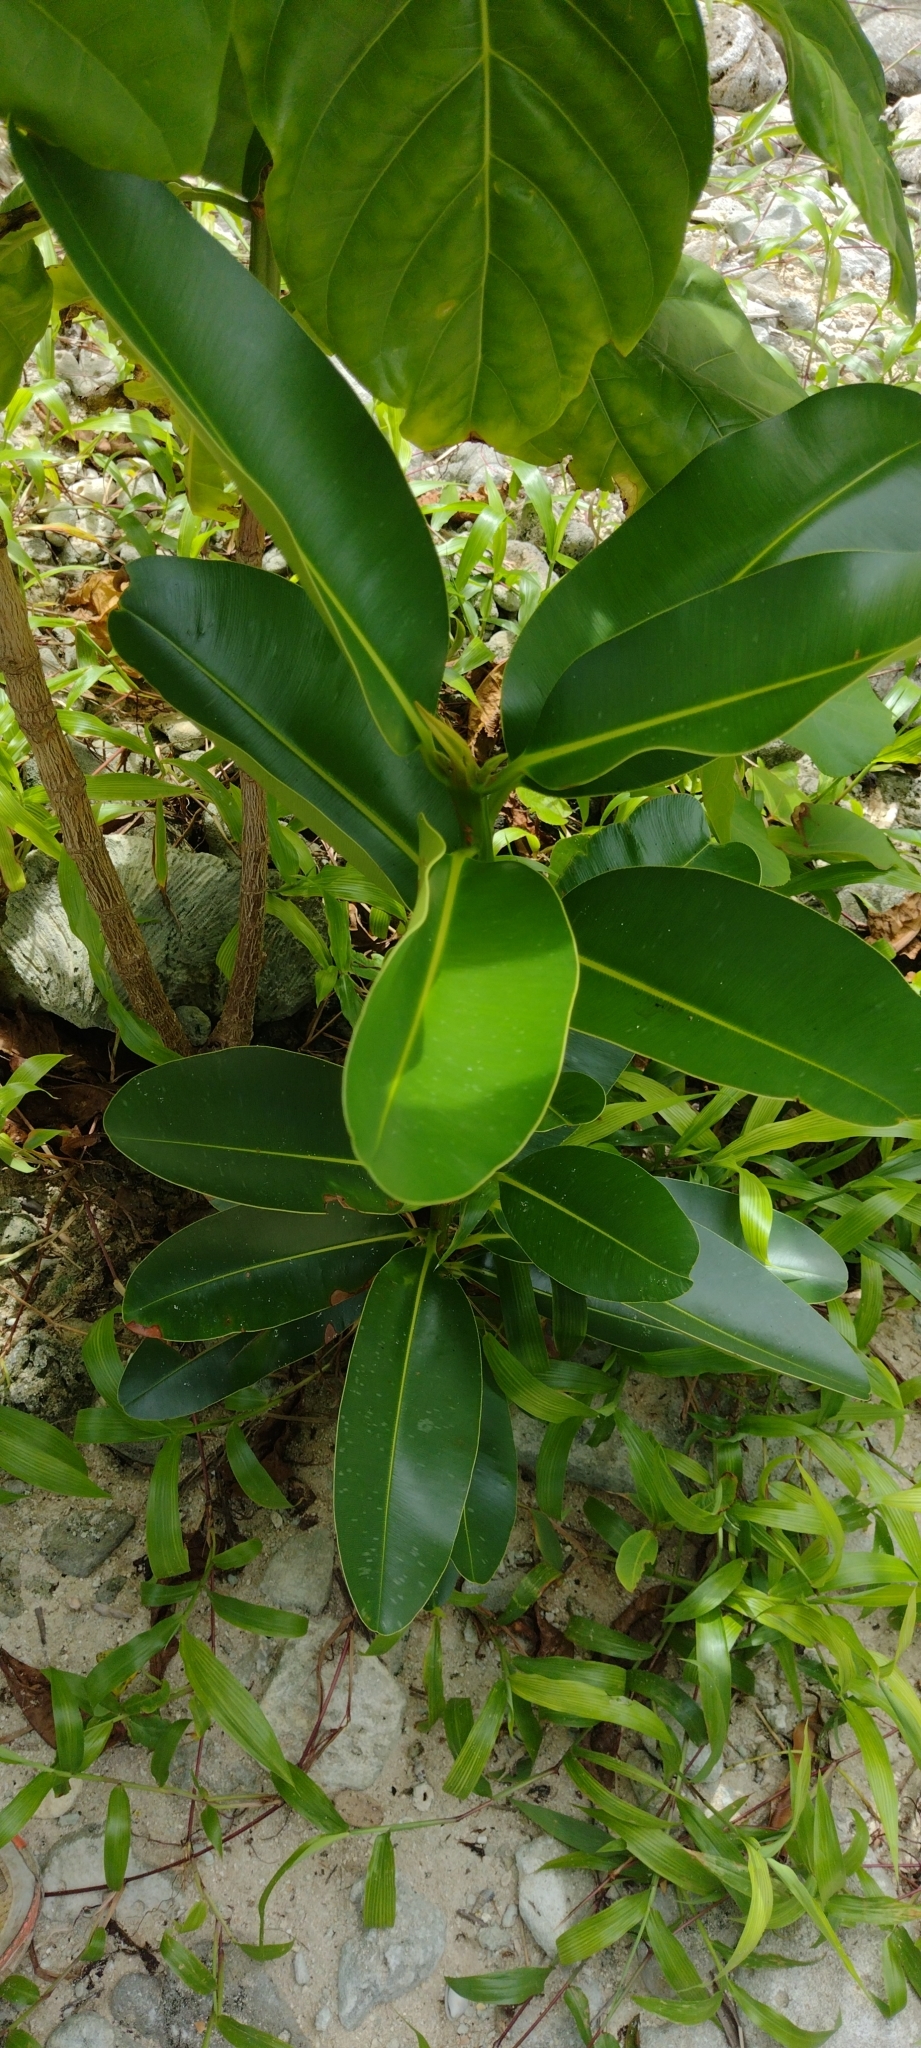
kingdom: Plantae
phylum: Tracheophyta
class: Magnoliopsida
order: Malpighiales
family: Calophyllaceae
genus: Calophyllum
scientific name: Calophyllum inophyllum
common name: Alexandrian laurel
